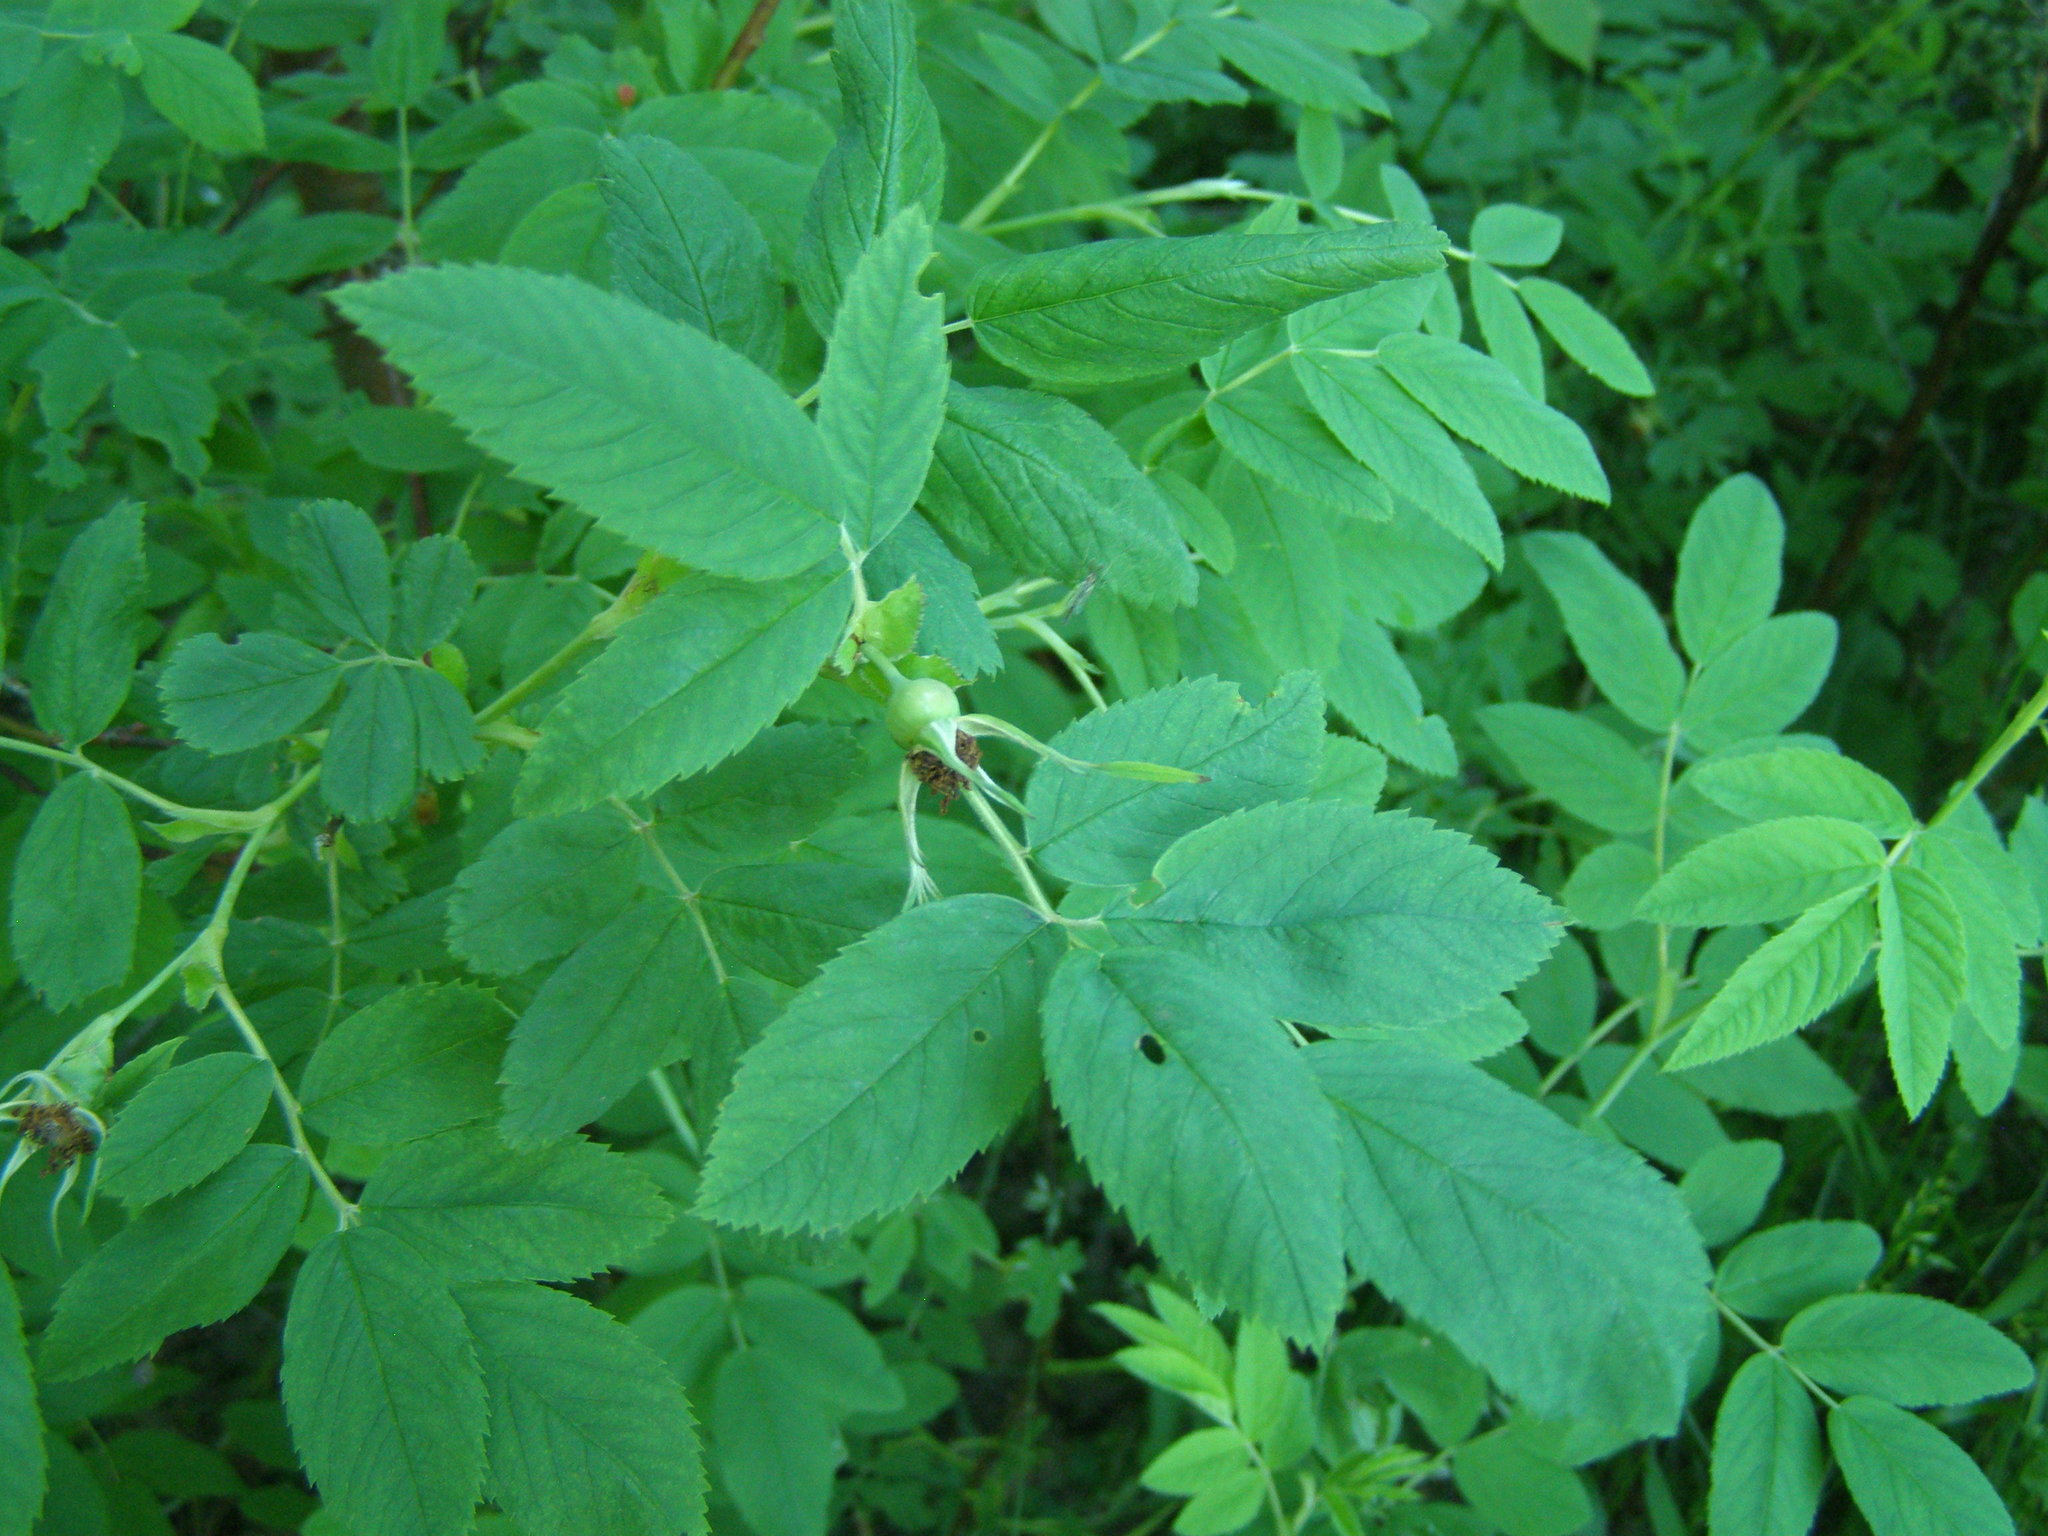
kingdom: Plantae
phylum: Tracheophyta
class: Magnoliopsida
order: Rosales
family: Rosaceae
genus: Rosa
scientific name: Rosa
